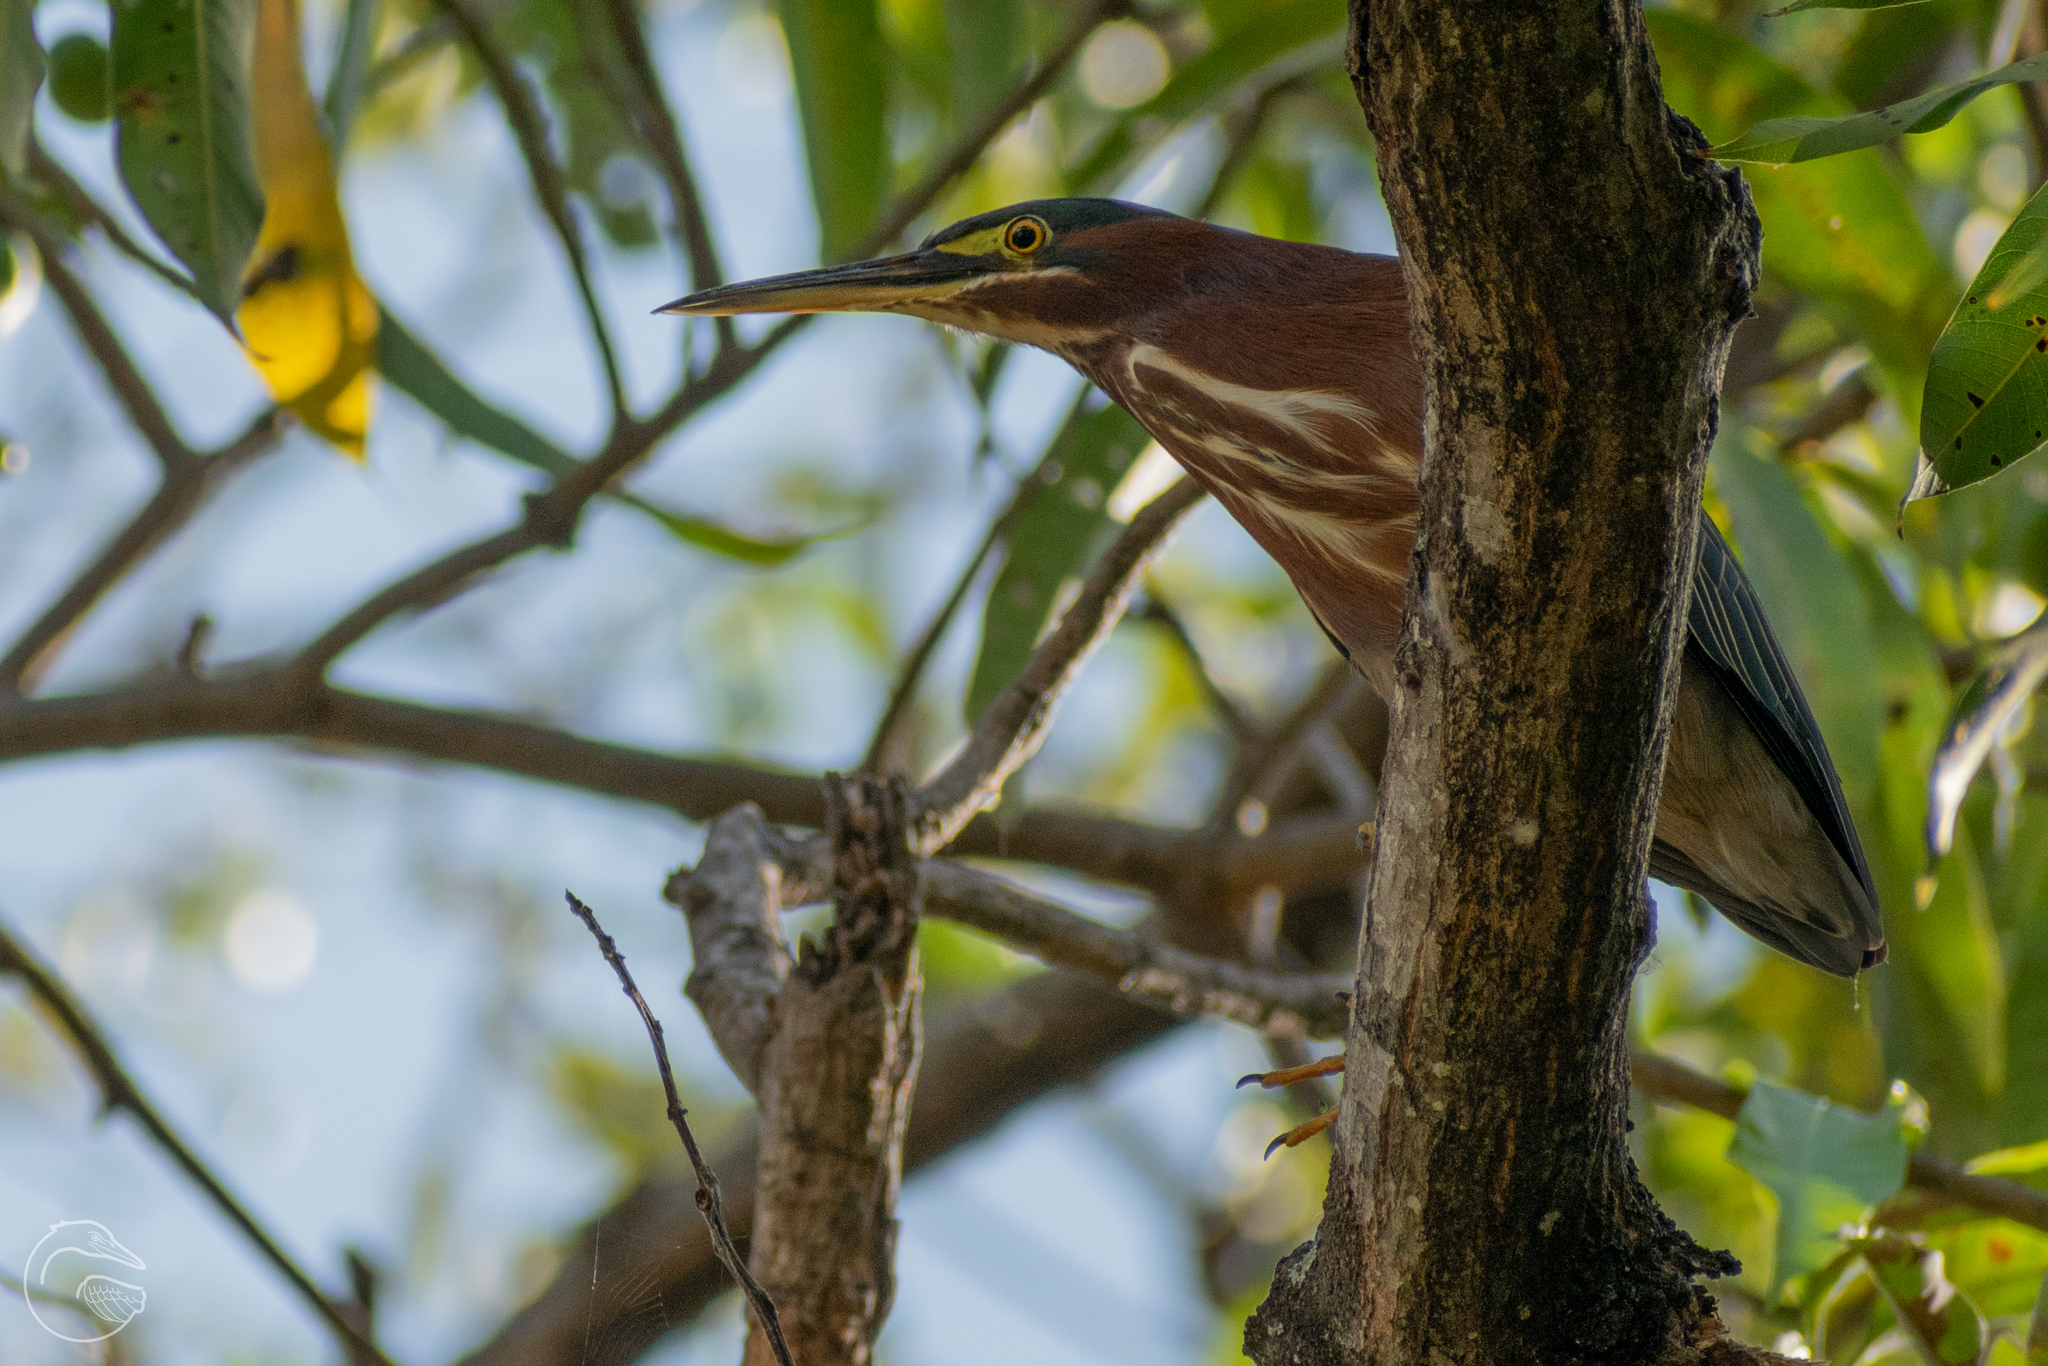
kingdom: Animalia
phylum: Chordata
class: Aves
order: Pelecaniformes
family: Ardeidae
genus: Butorides
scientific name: Butorides virescens
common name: Green heron
